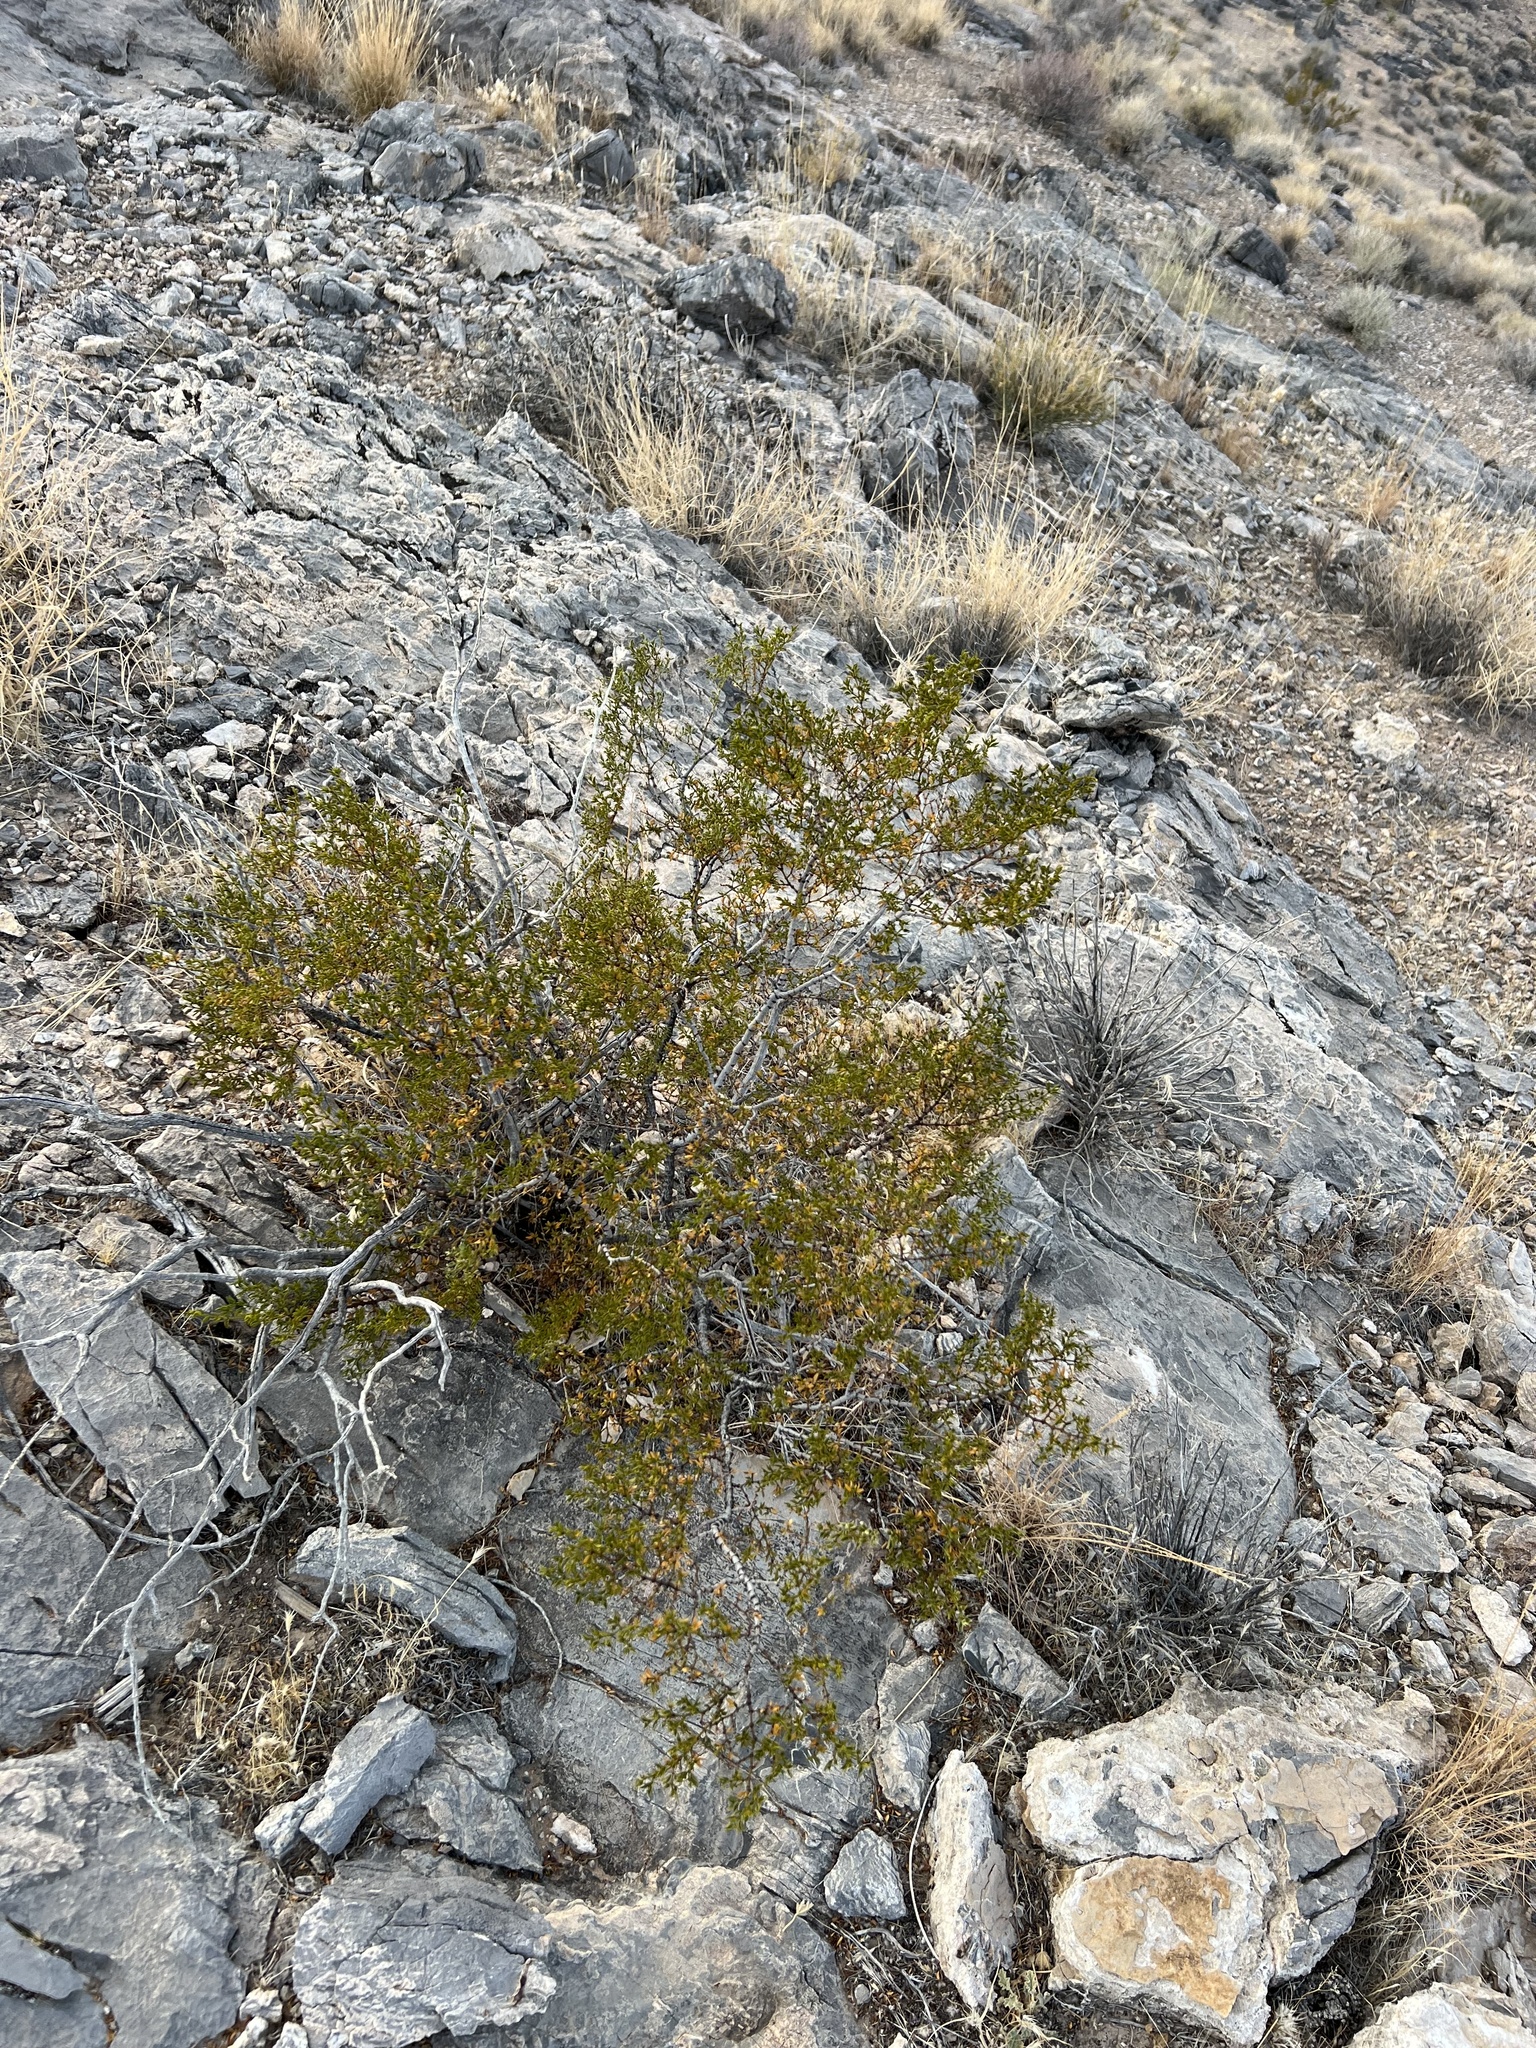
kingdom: Plantae
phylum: Tracheophyta
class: Magnoliopsida
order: Zygophyllales
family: Zygophyllaceae
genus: Larrea
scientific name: Larrea tridentata
